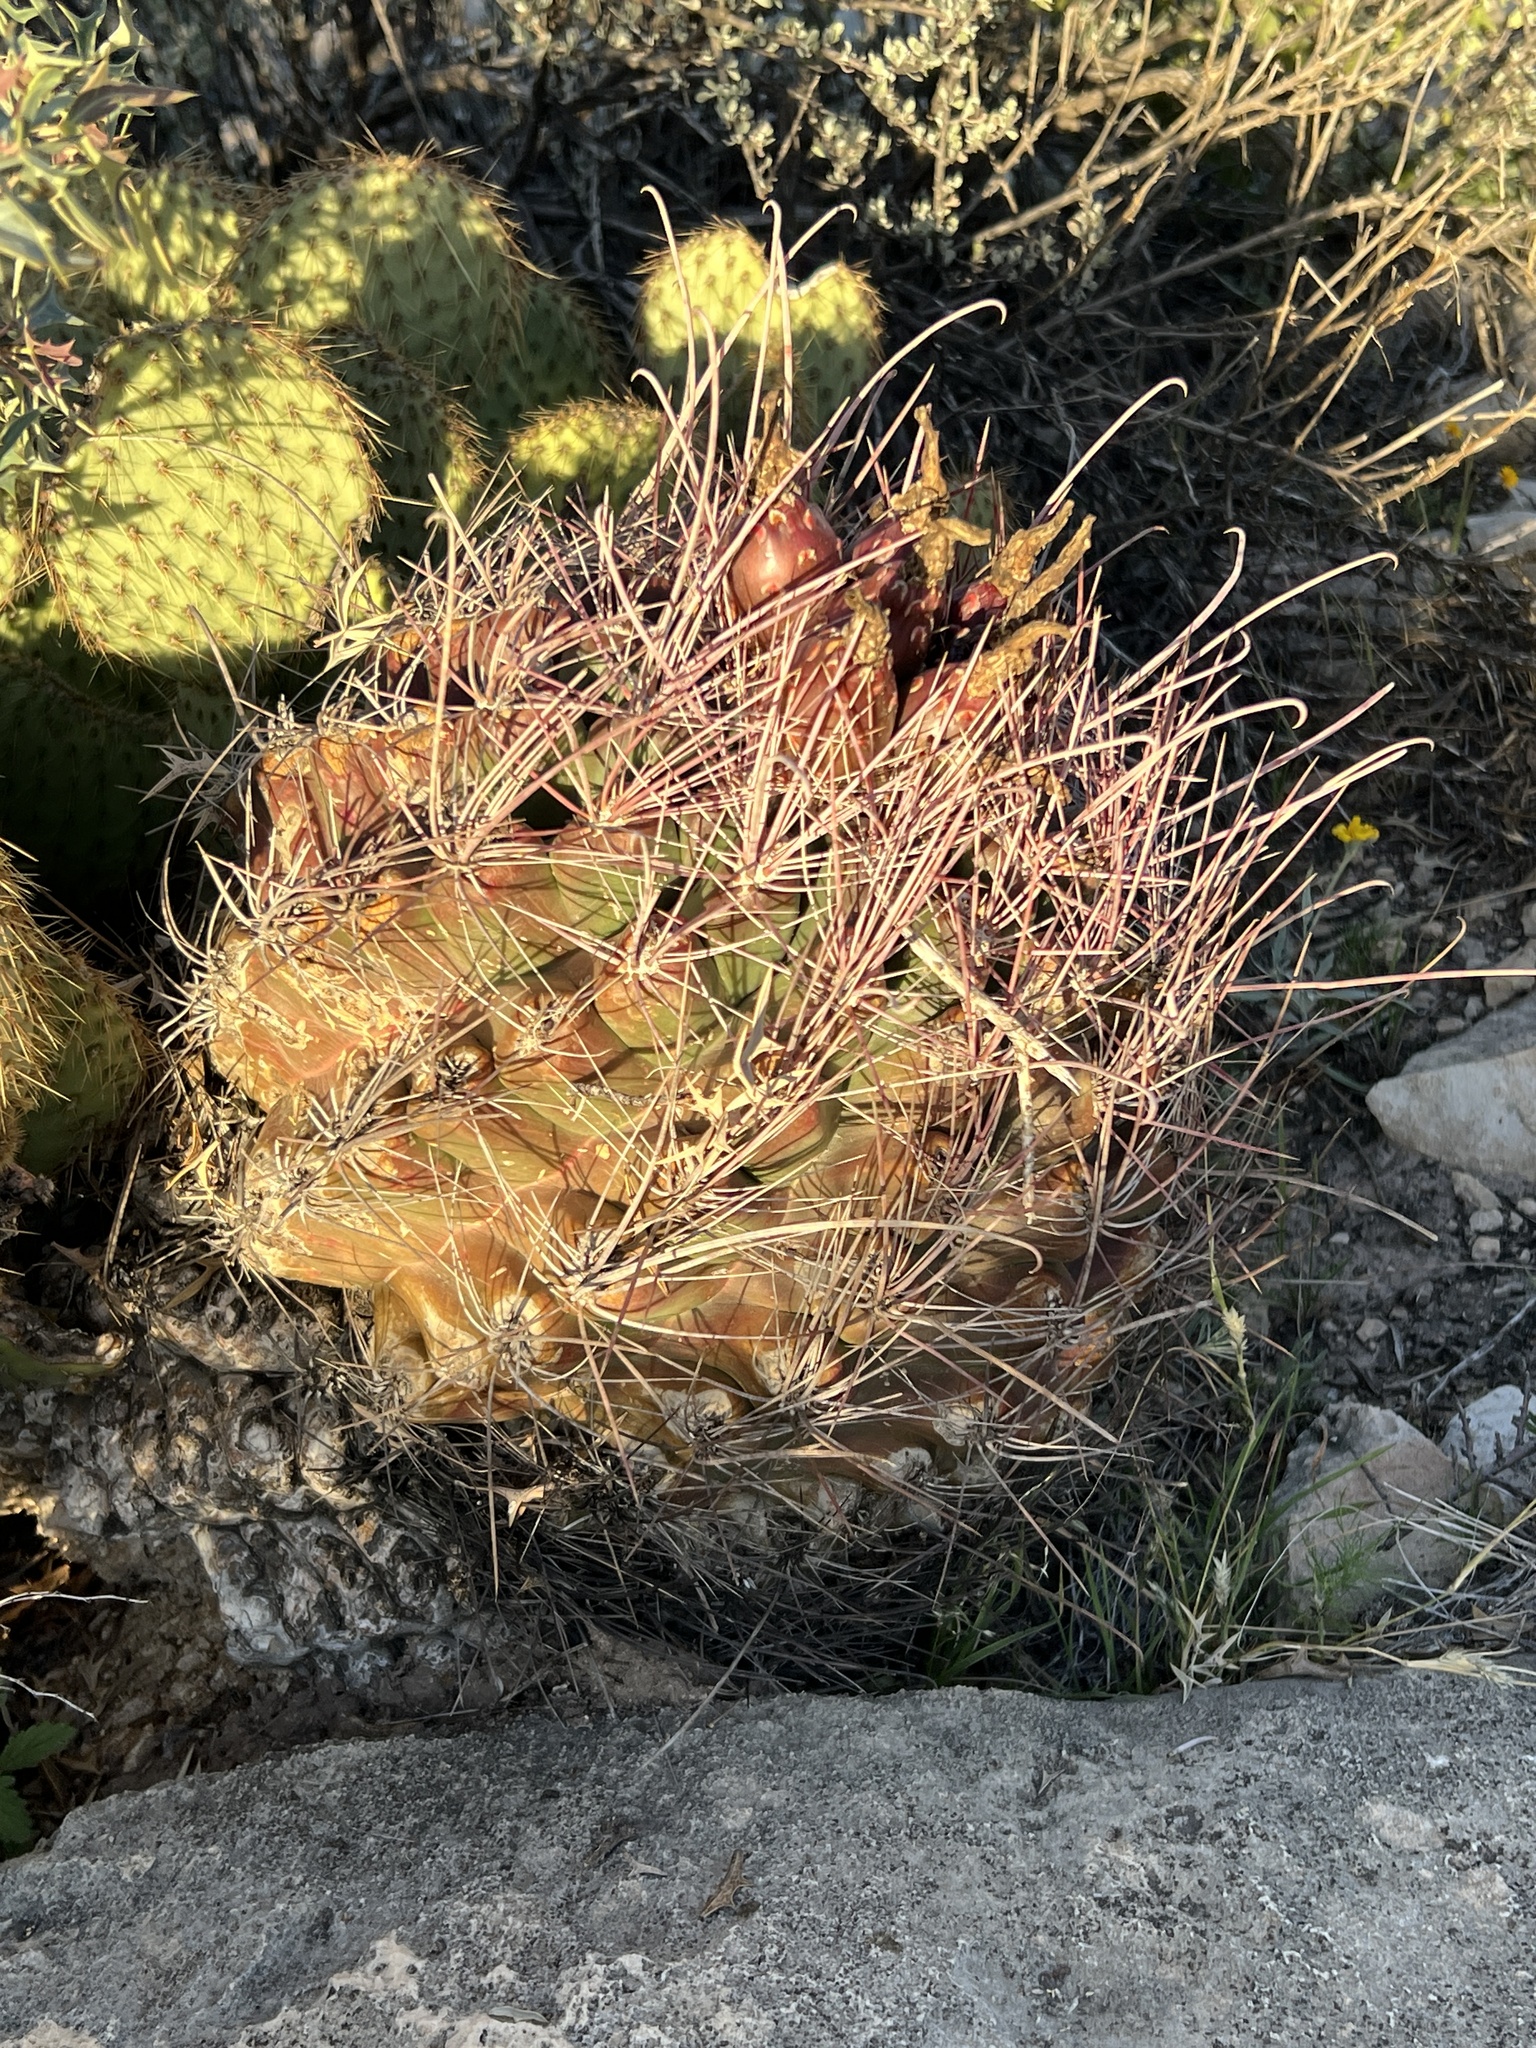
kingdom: Plantae
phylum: Tracheophyta
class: Magnoliopsida
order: Caryophyllales
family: Cactaceae
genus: Bisnaga
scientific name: Bisnaga hamatacantha
